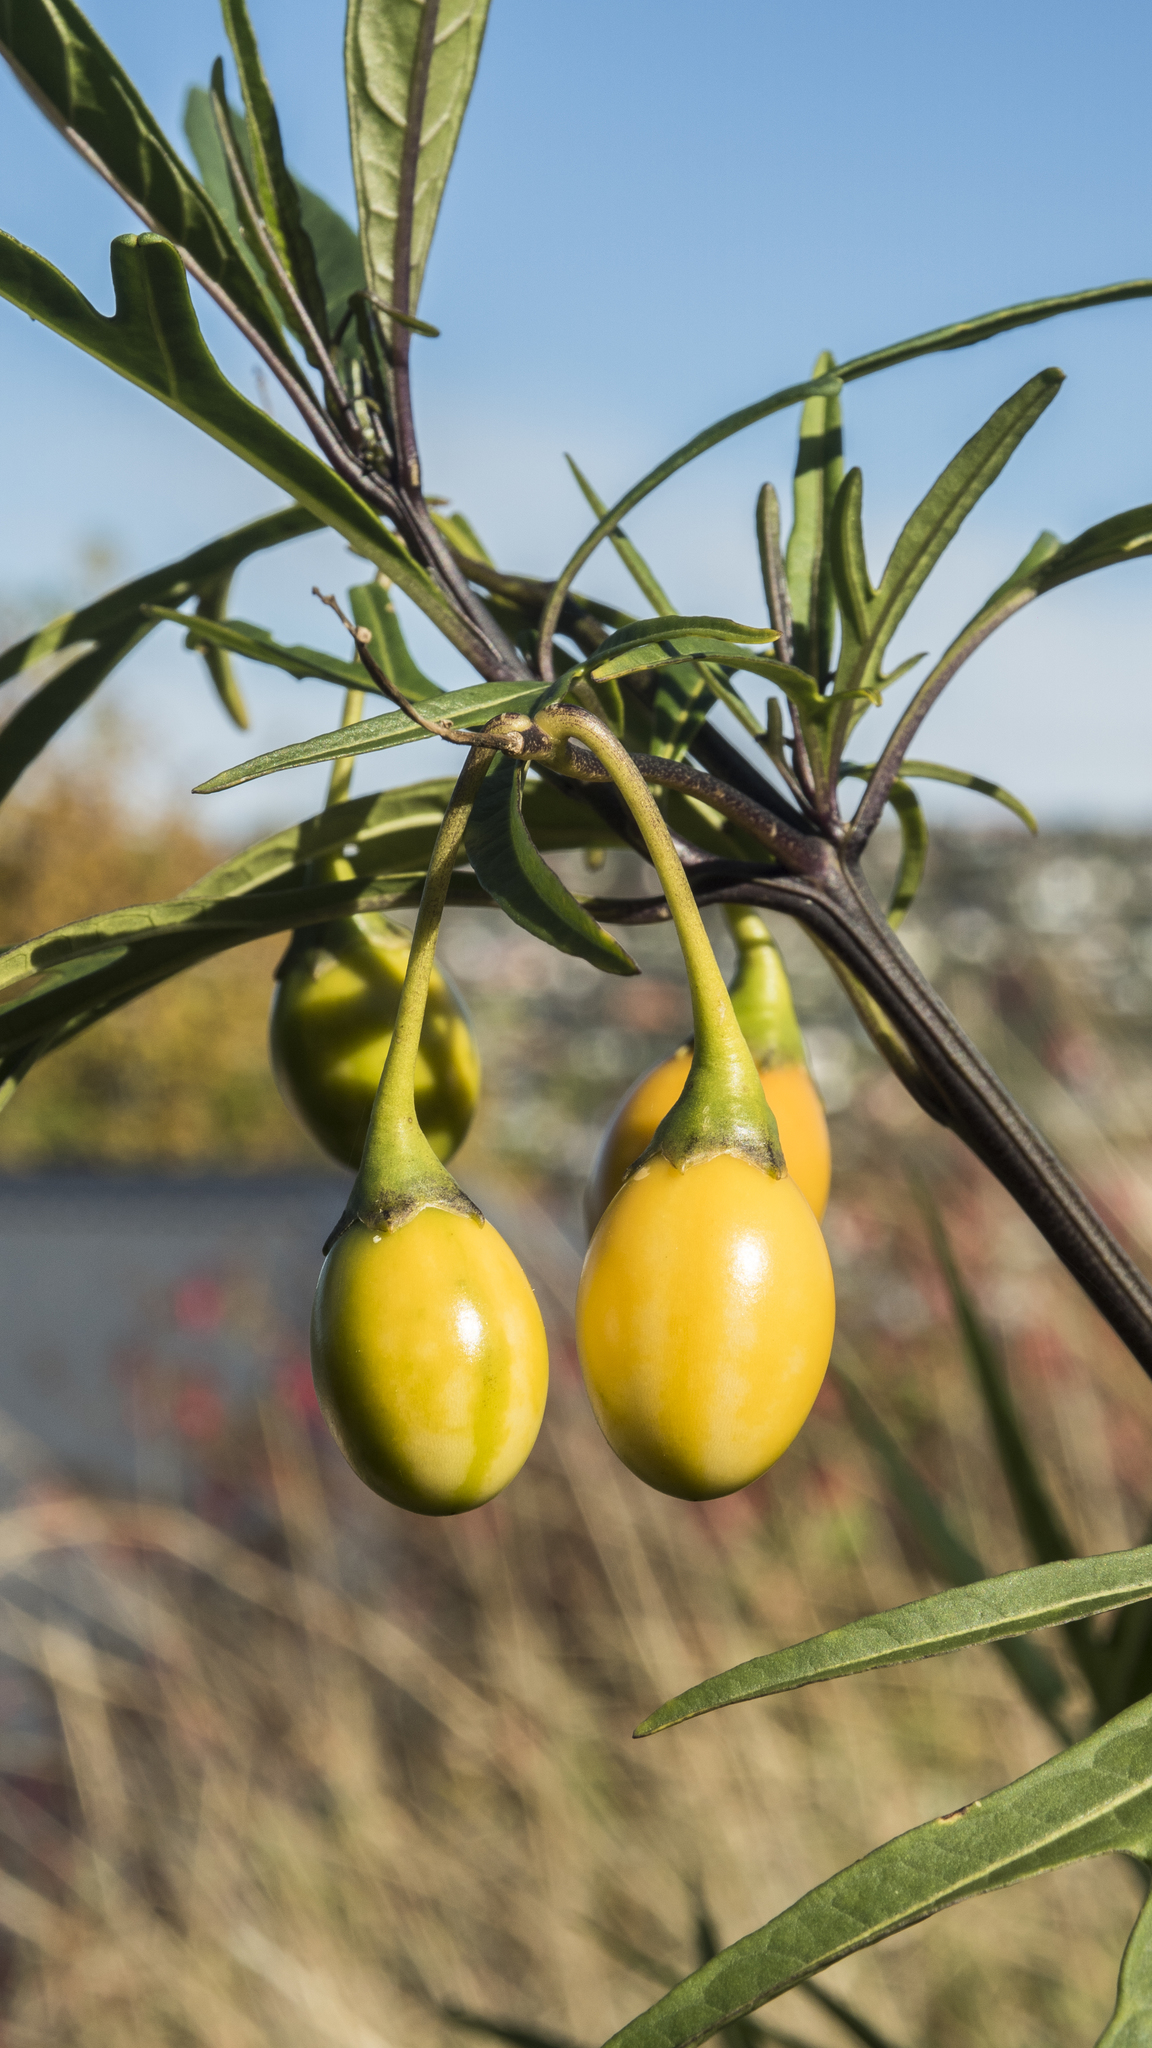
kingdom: Plantae
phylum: Tracheophyta
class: Magnoliopsida
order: Solanales
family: Solanaceae
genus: Solanum
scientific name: Solanum
